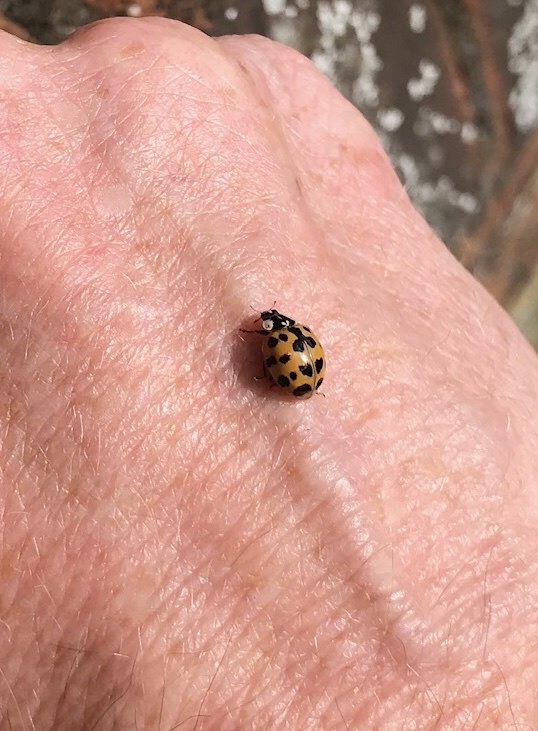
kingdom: Animalia
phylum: Arthropoda
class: Insecta
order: Coleoptera
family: Coccinellidae
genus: Harmonia
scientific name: Harmonia axyridis
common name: Harlequin ladybird
